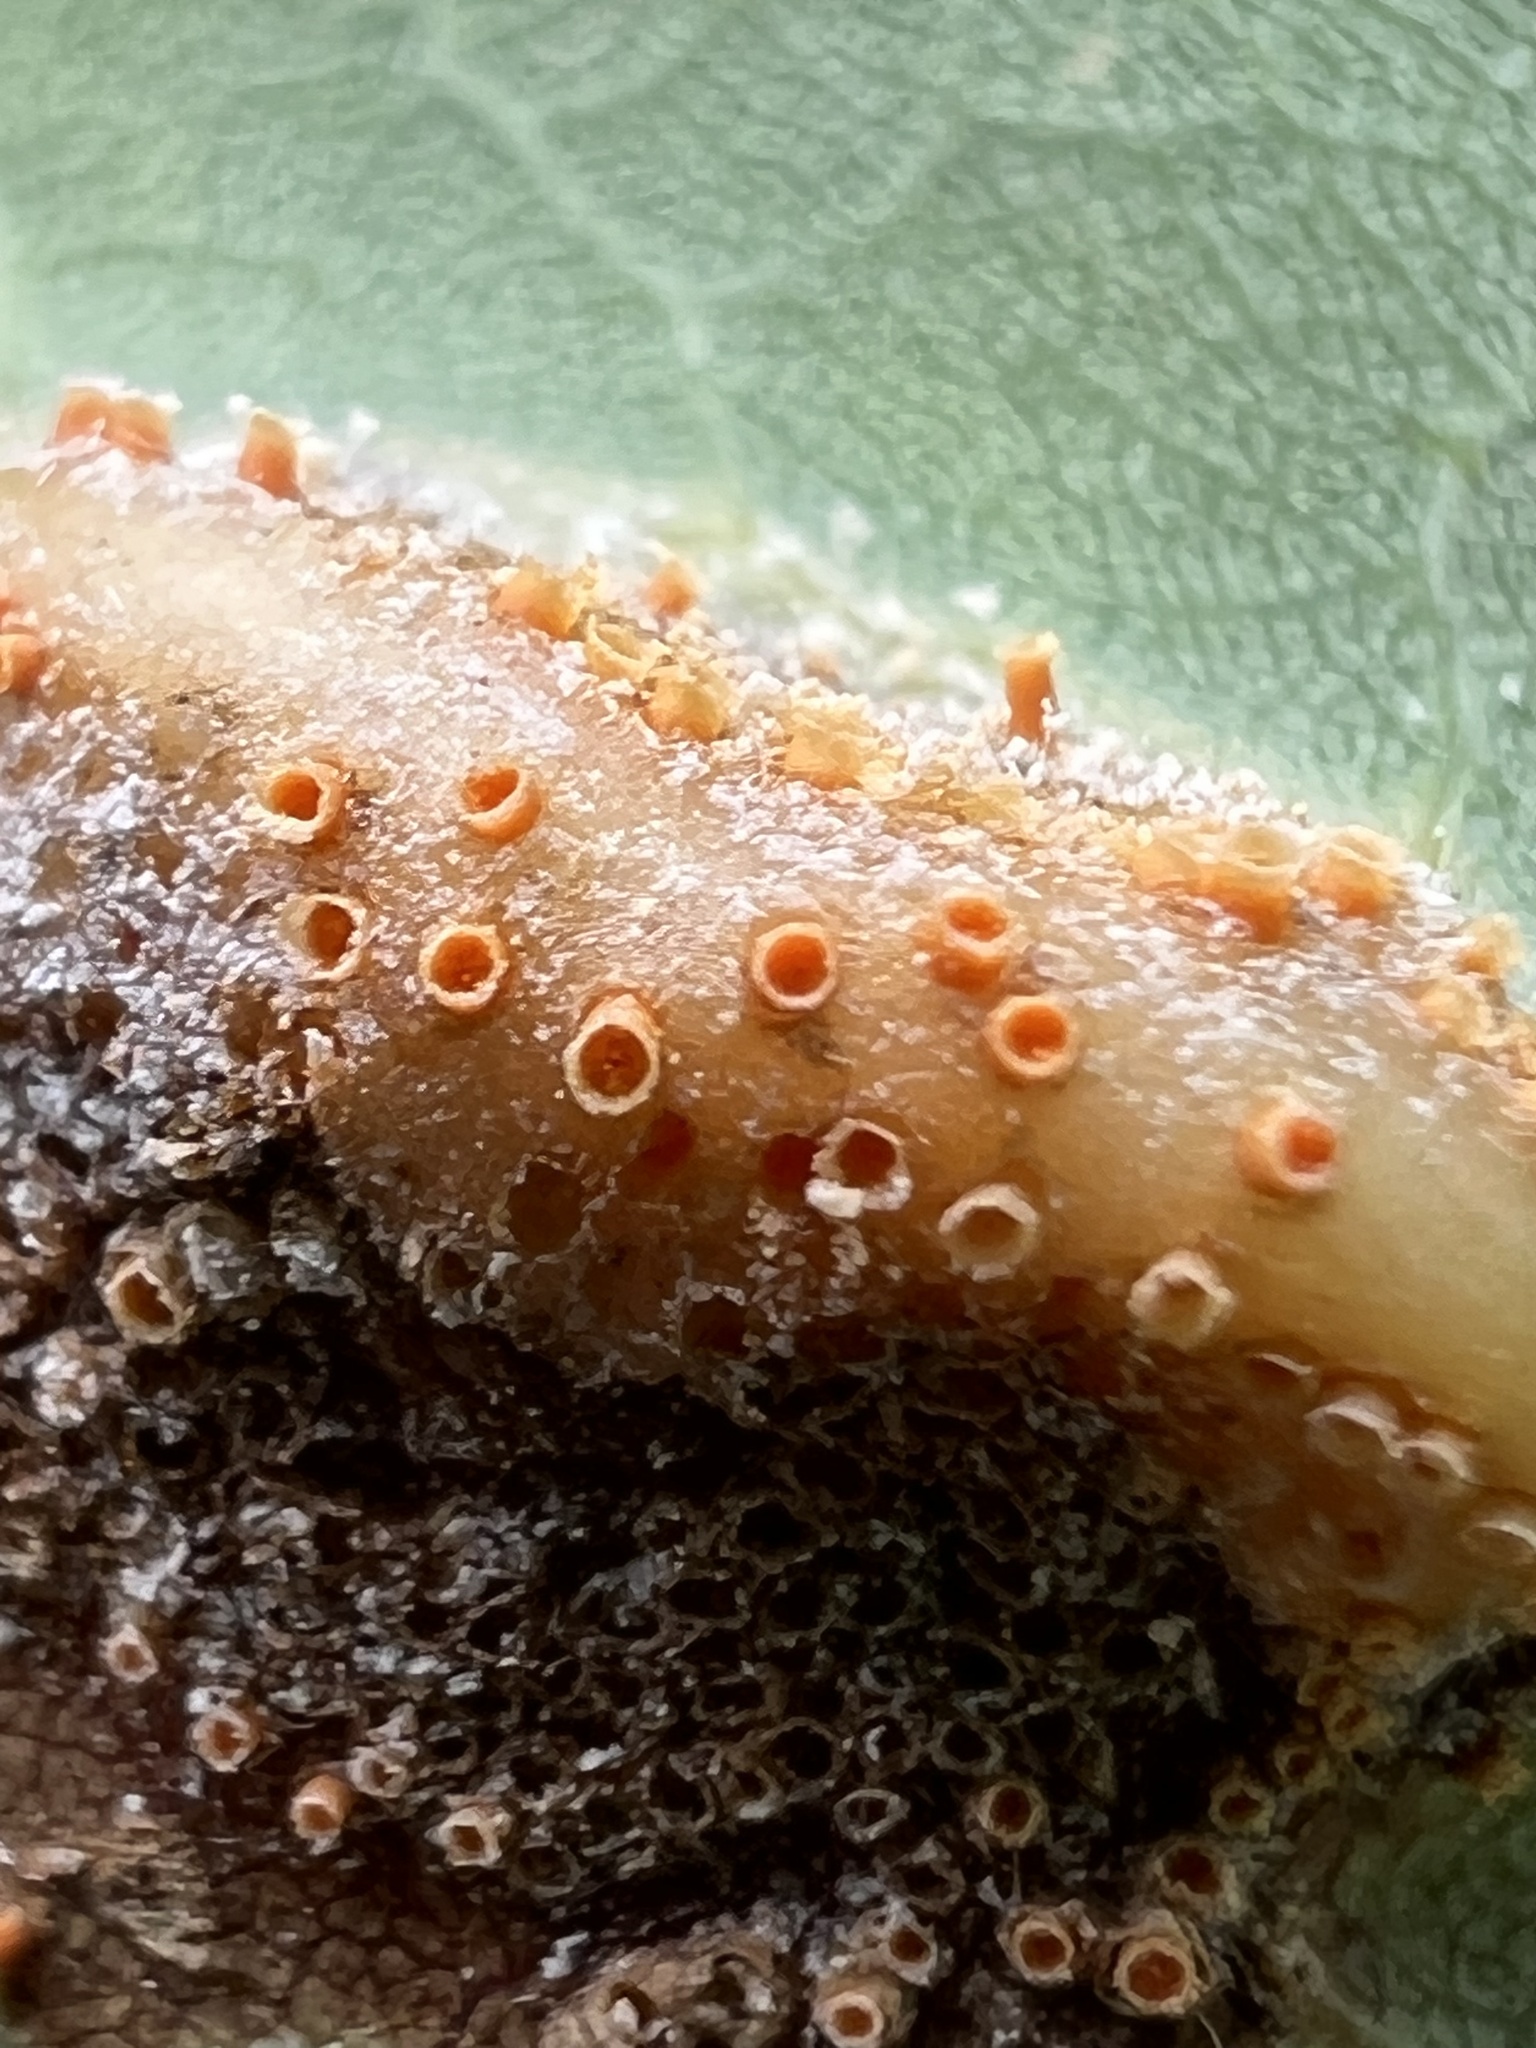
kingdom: Fungi
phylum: Basidiomycota
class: Pucciniomycetes
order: Pucciniales
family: Pucciniaceae
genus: Puccinia
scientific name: Puccinia sparganioidis
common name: Ash rust
